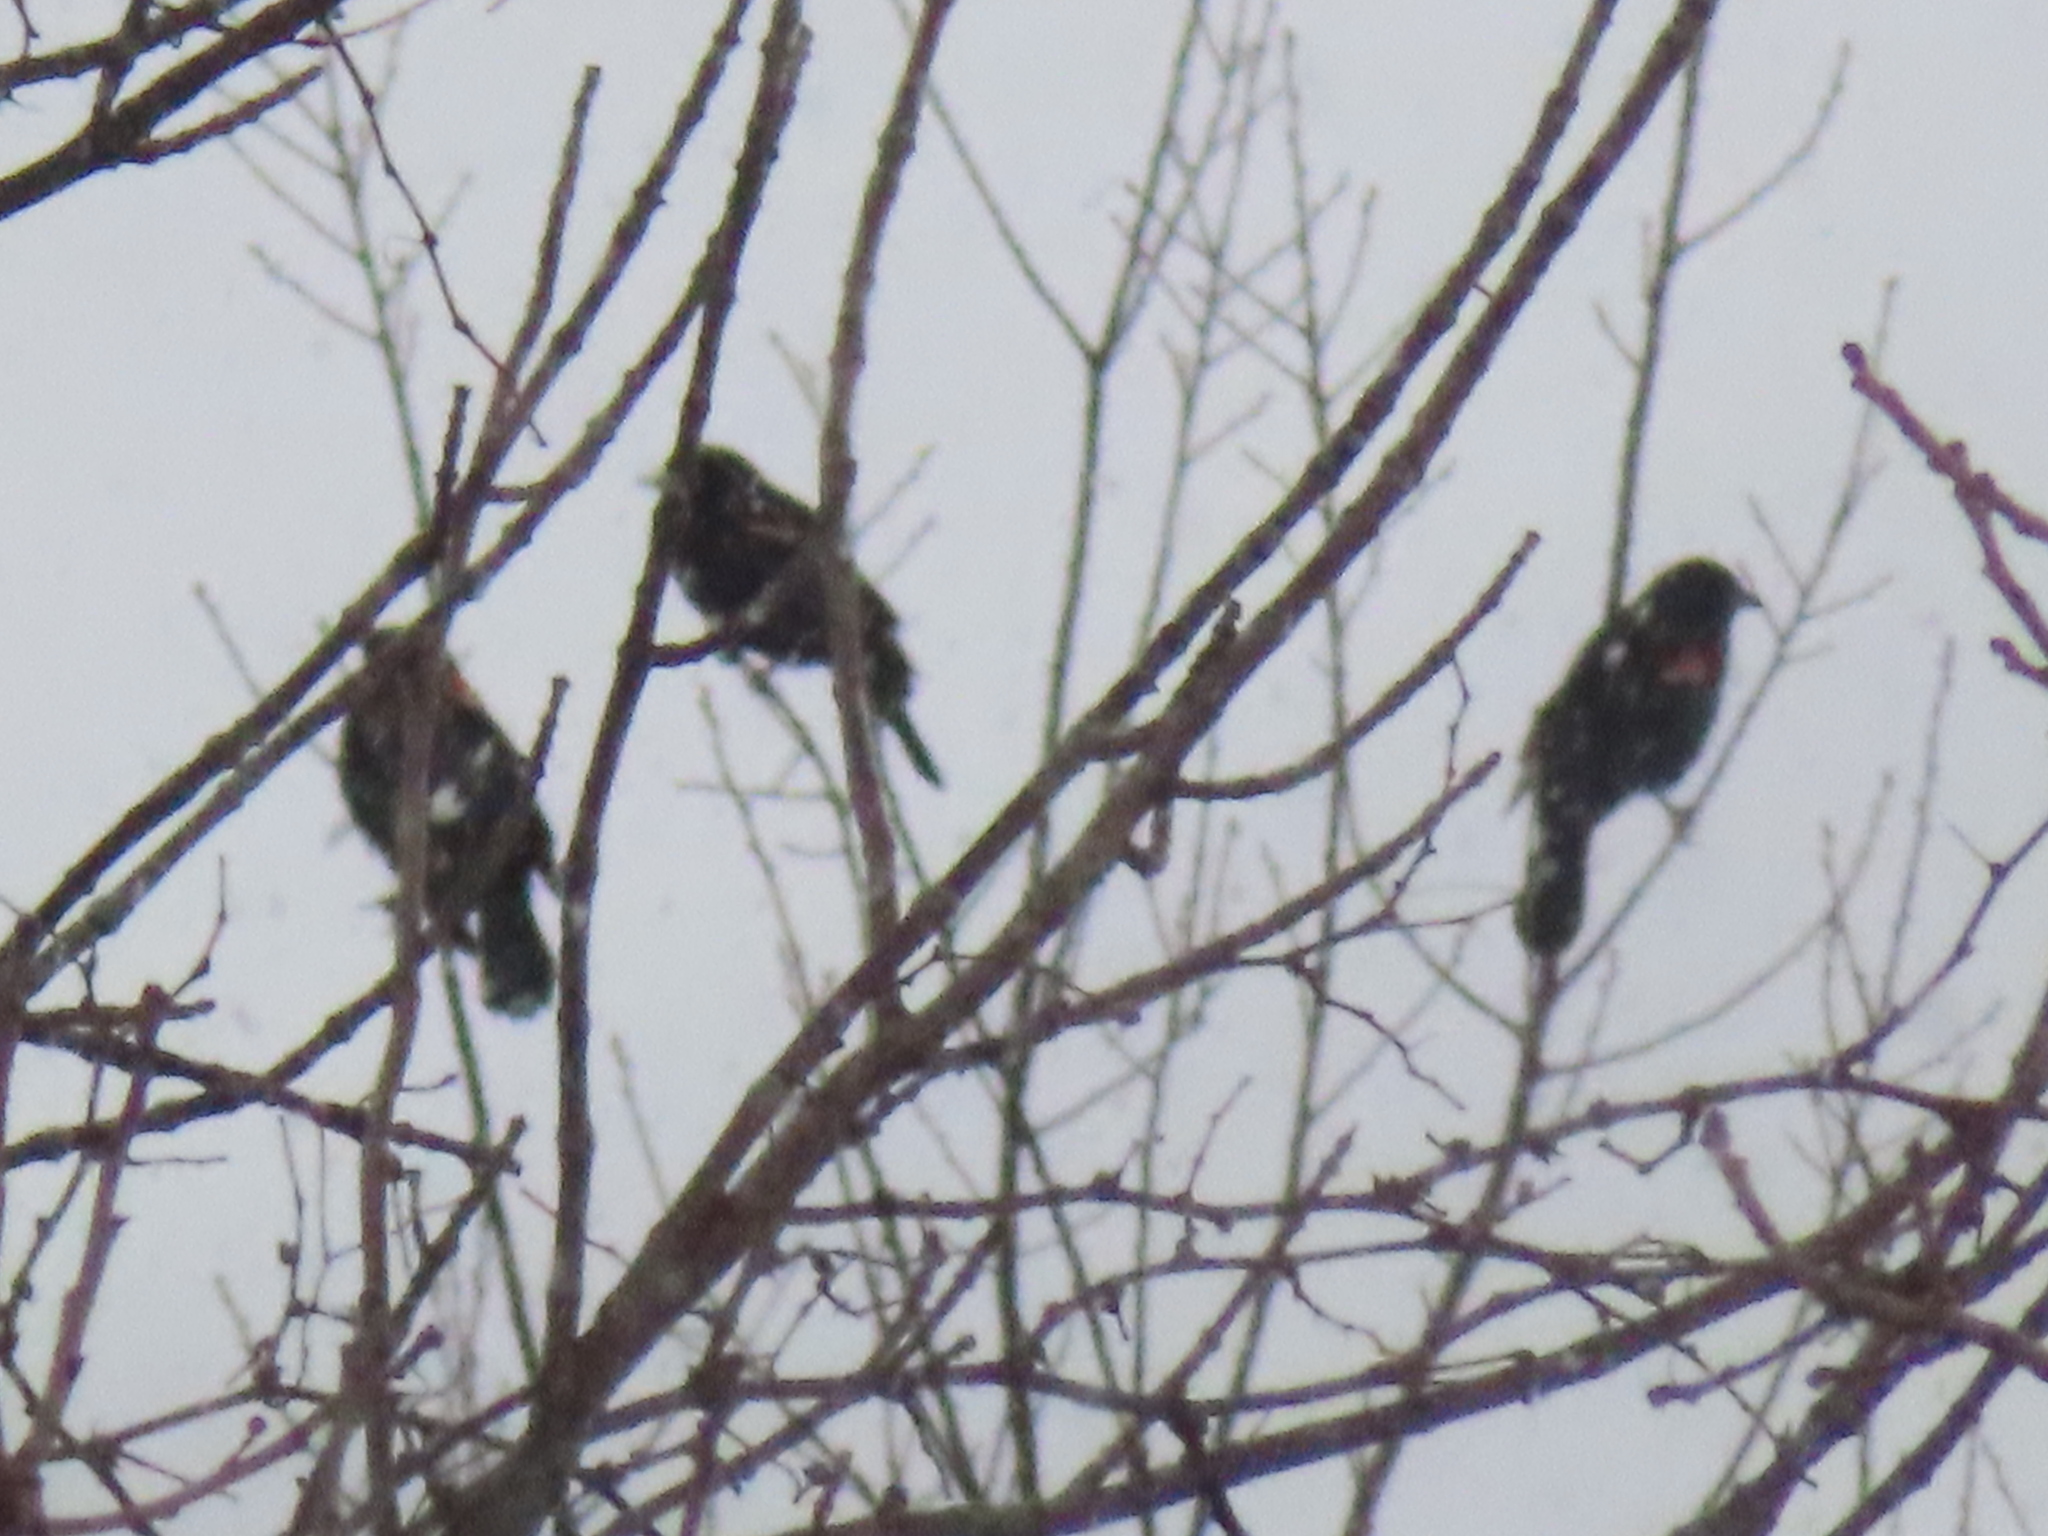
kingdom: Animalia
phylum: Chordata
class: Aves
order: Passeriformes
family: Icteridae
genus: Agelaius
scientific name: Agelaius phoeniceus
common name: Red-winged blackbird
